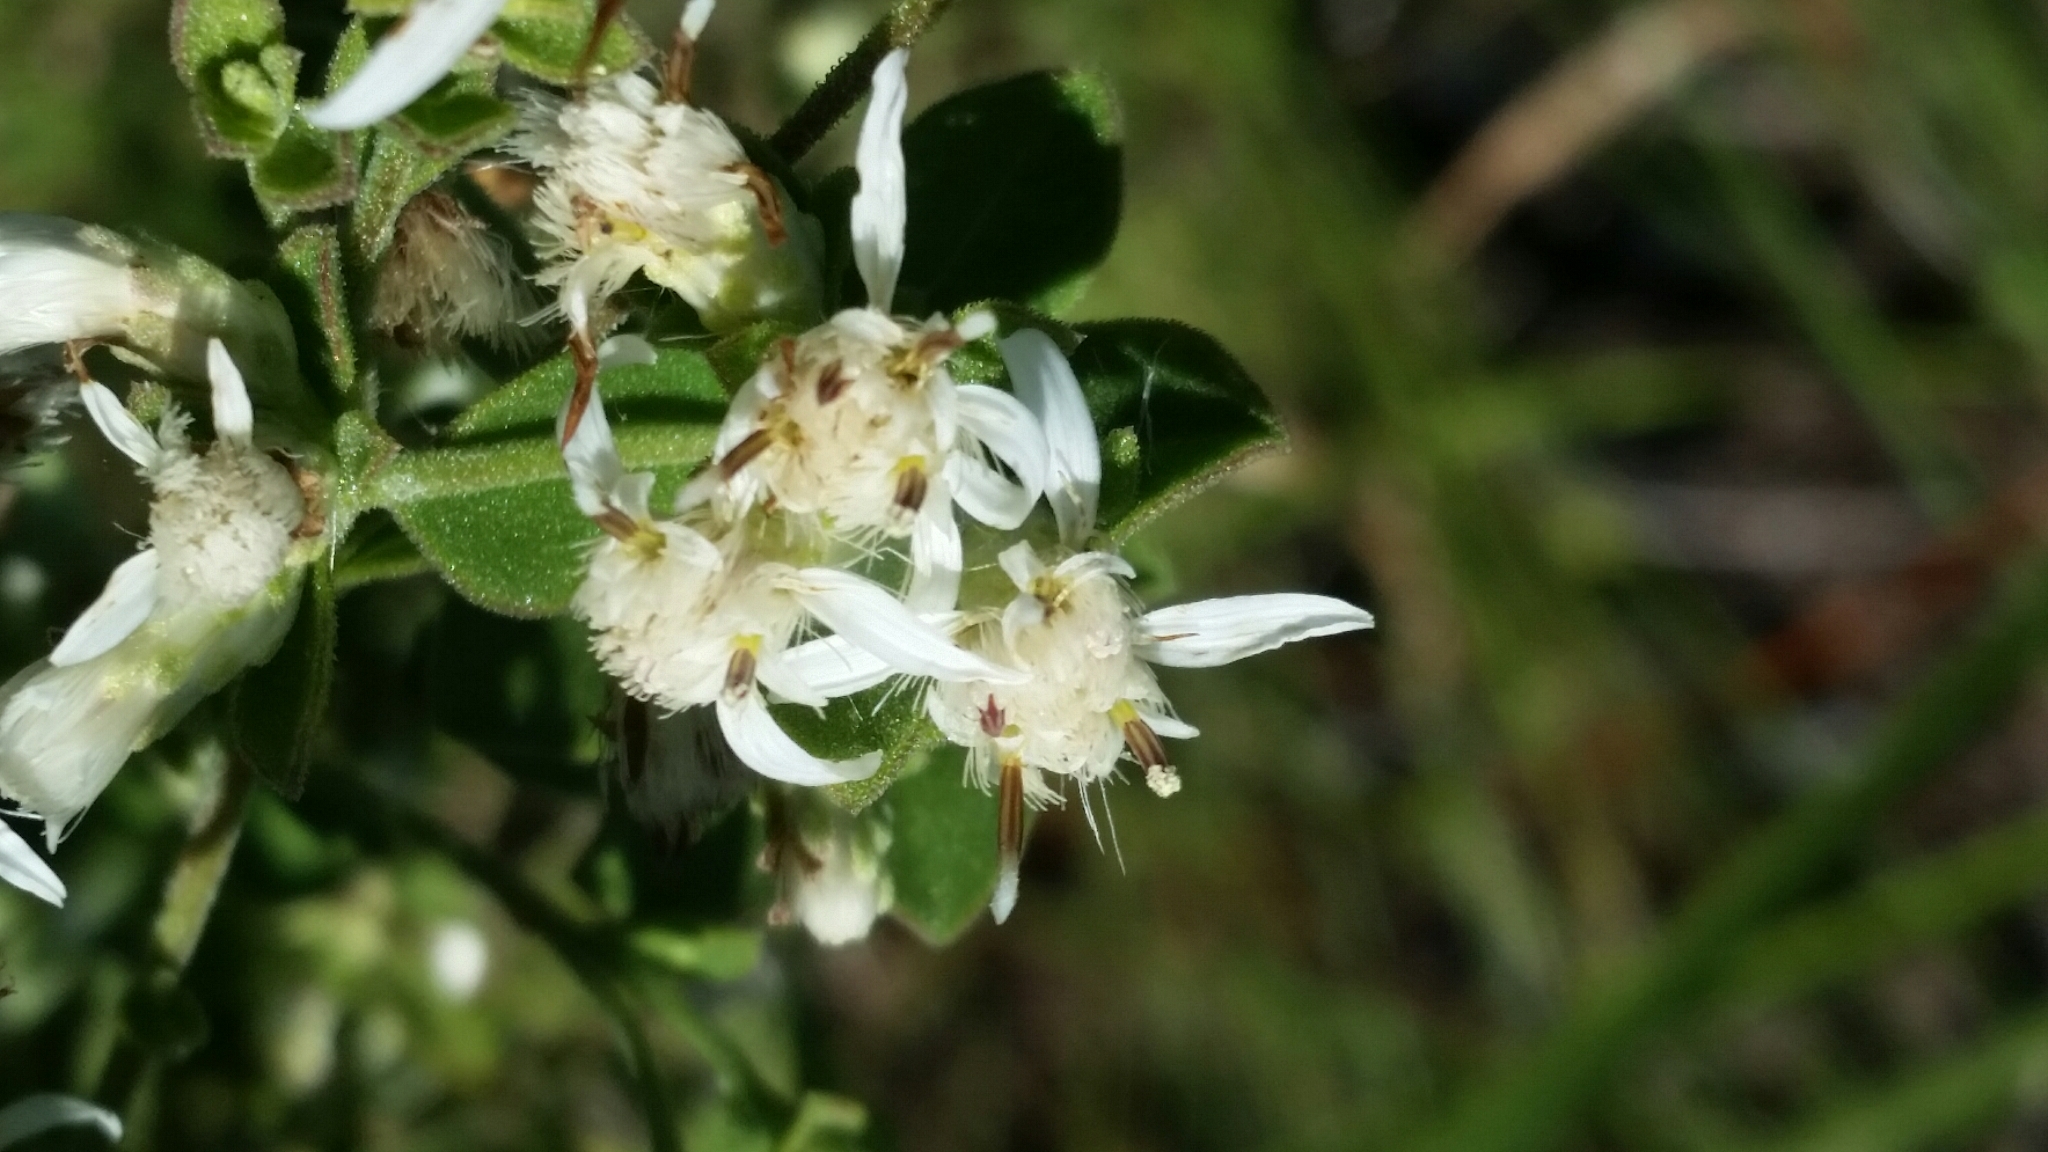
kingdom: Plantae
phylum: Tracheophyta
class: Magnoliopsida
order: Asterales
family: Asteraceae
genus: Sericocarpus
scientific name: Sericocarpus tortifolius
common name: Dixie aster
